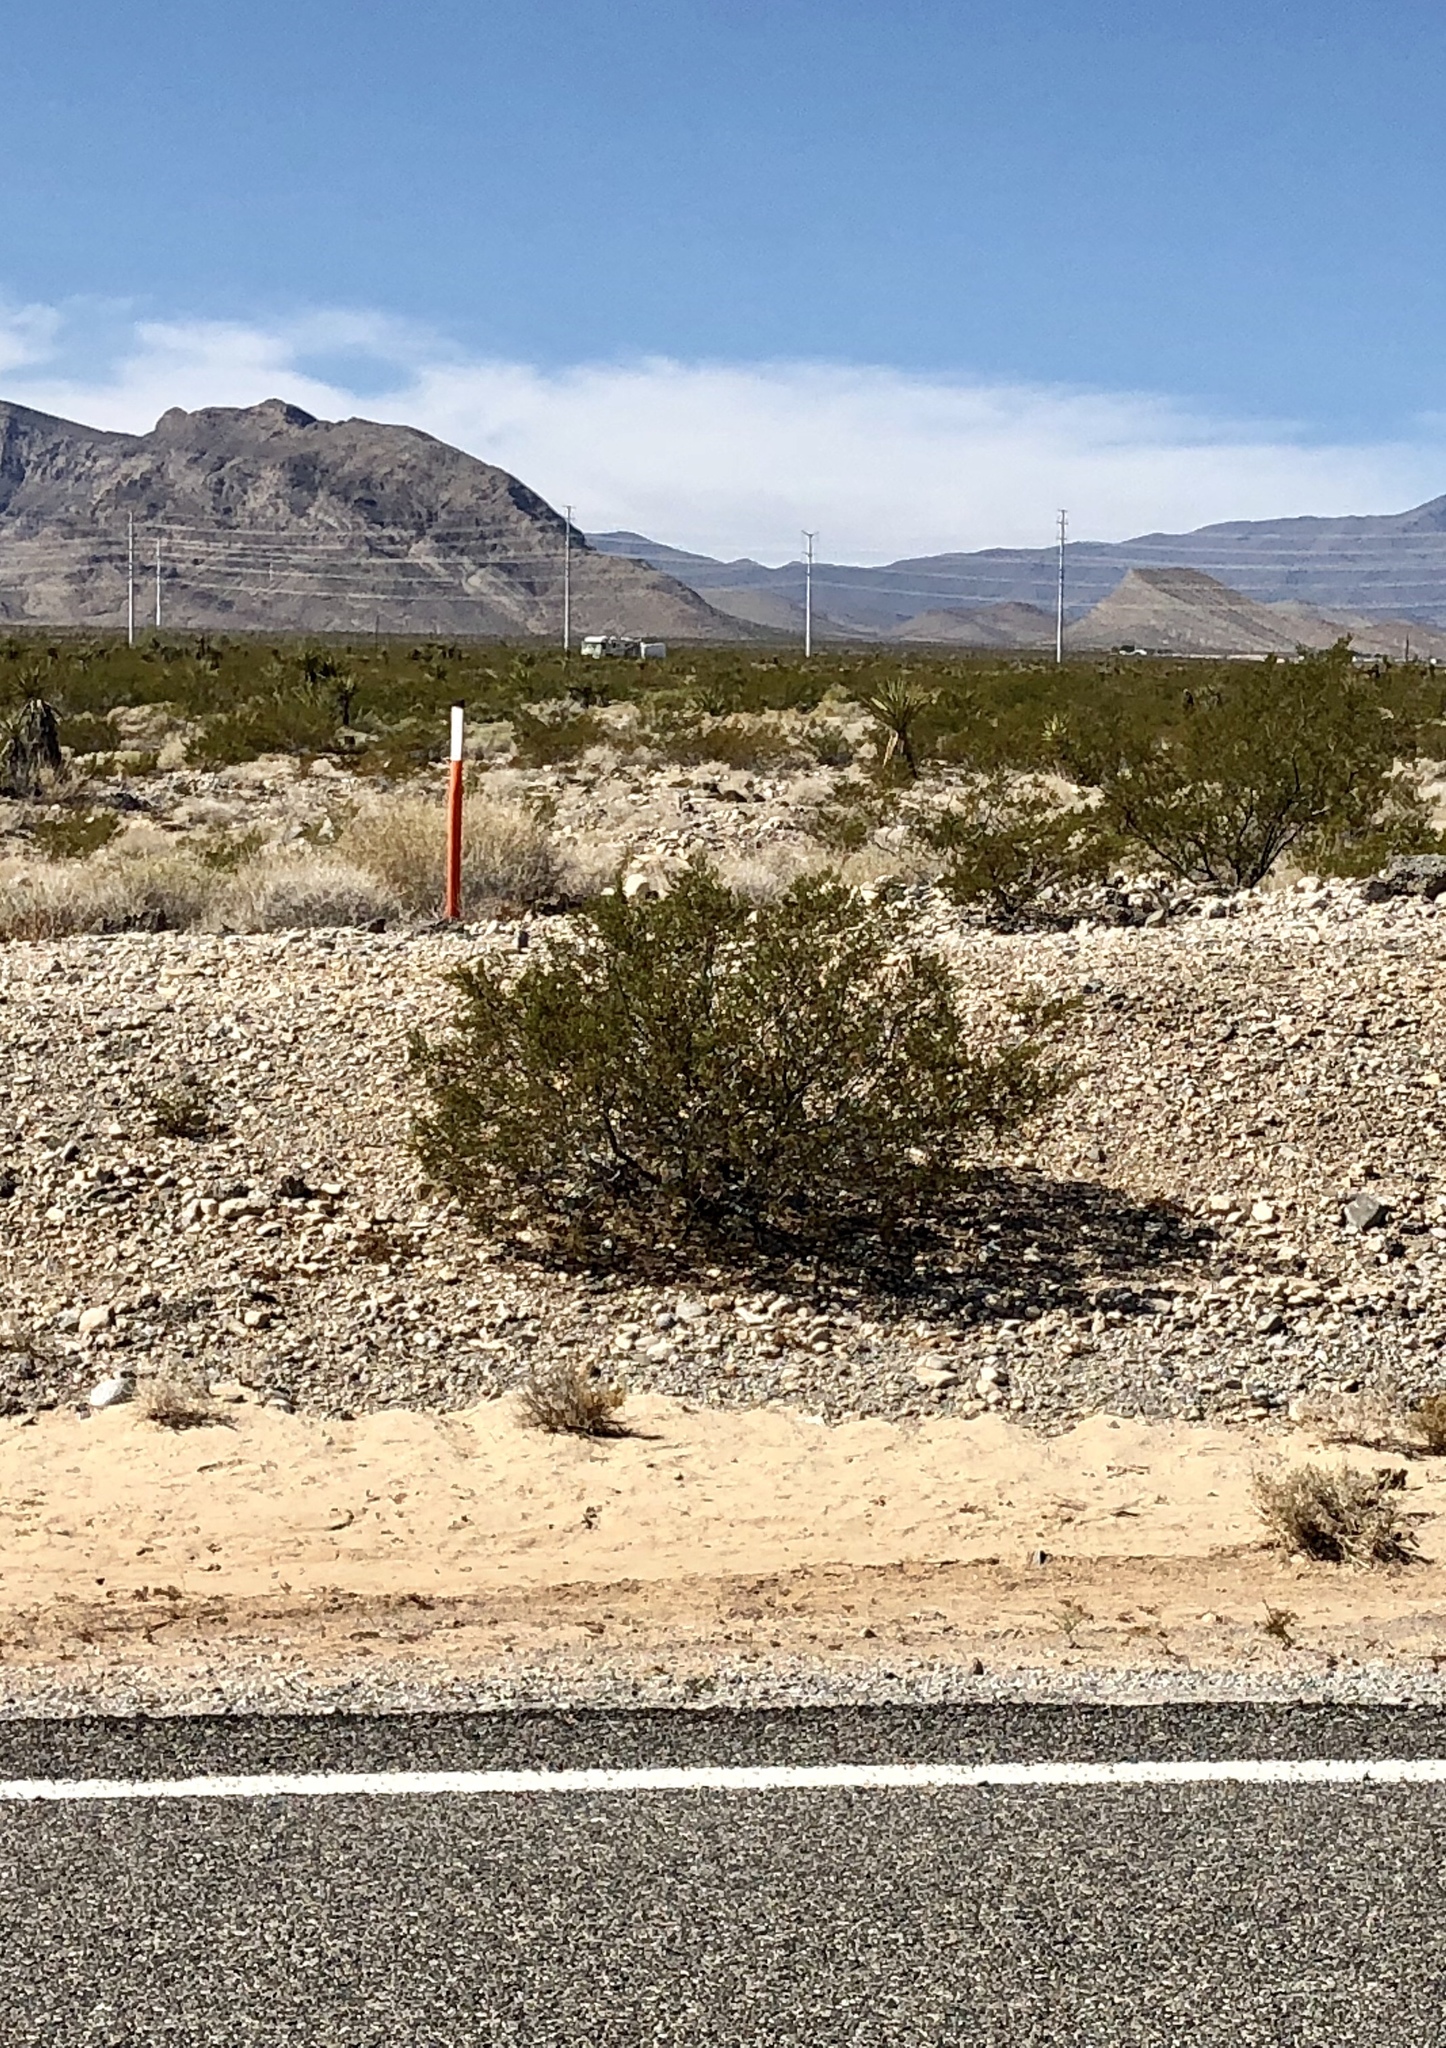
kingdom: Plantae
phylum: Tracheophyta
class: Magnoliopsida
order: Zygophyllales
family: Zygophyllaceae
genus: Larrea
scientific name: Larrea tridentata
